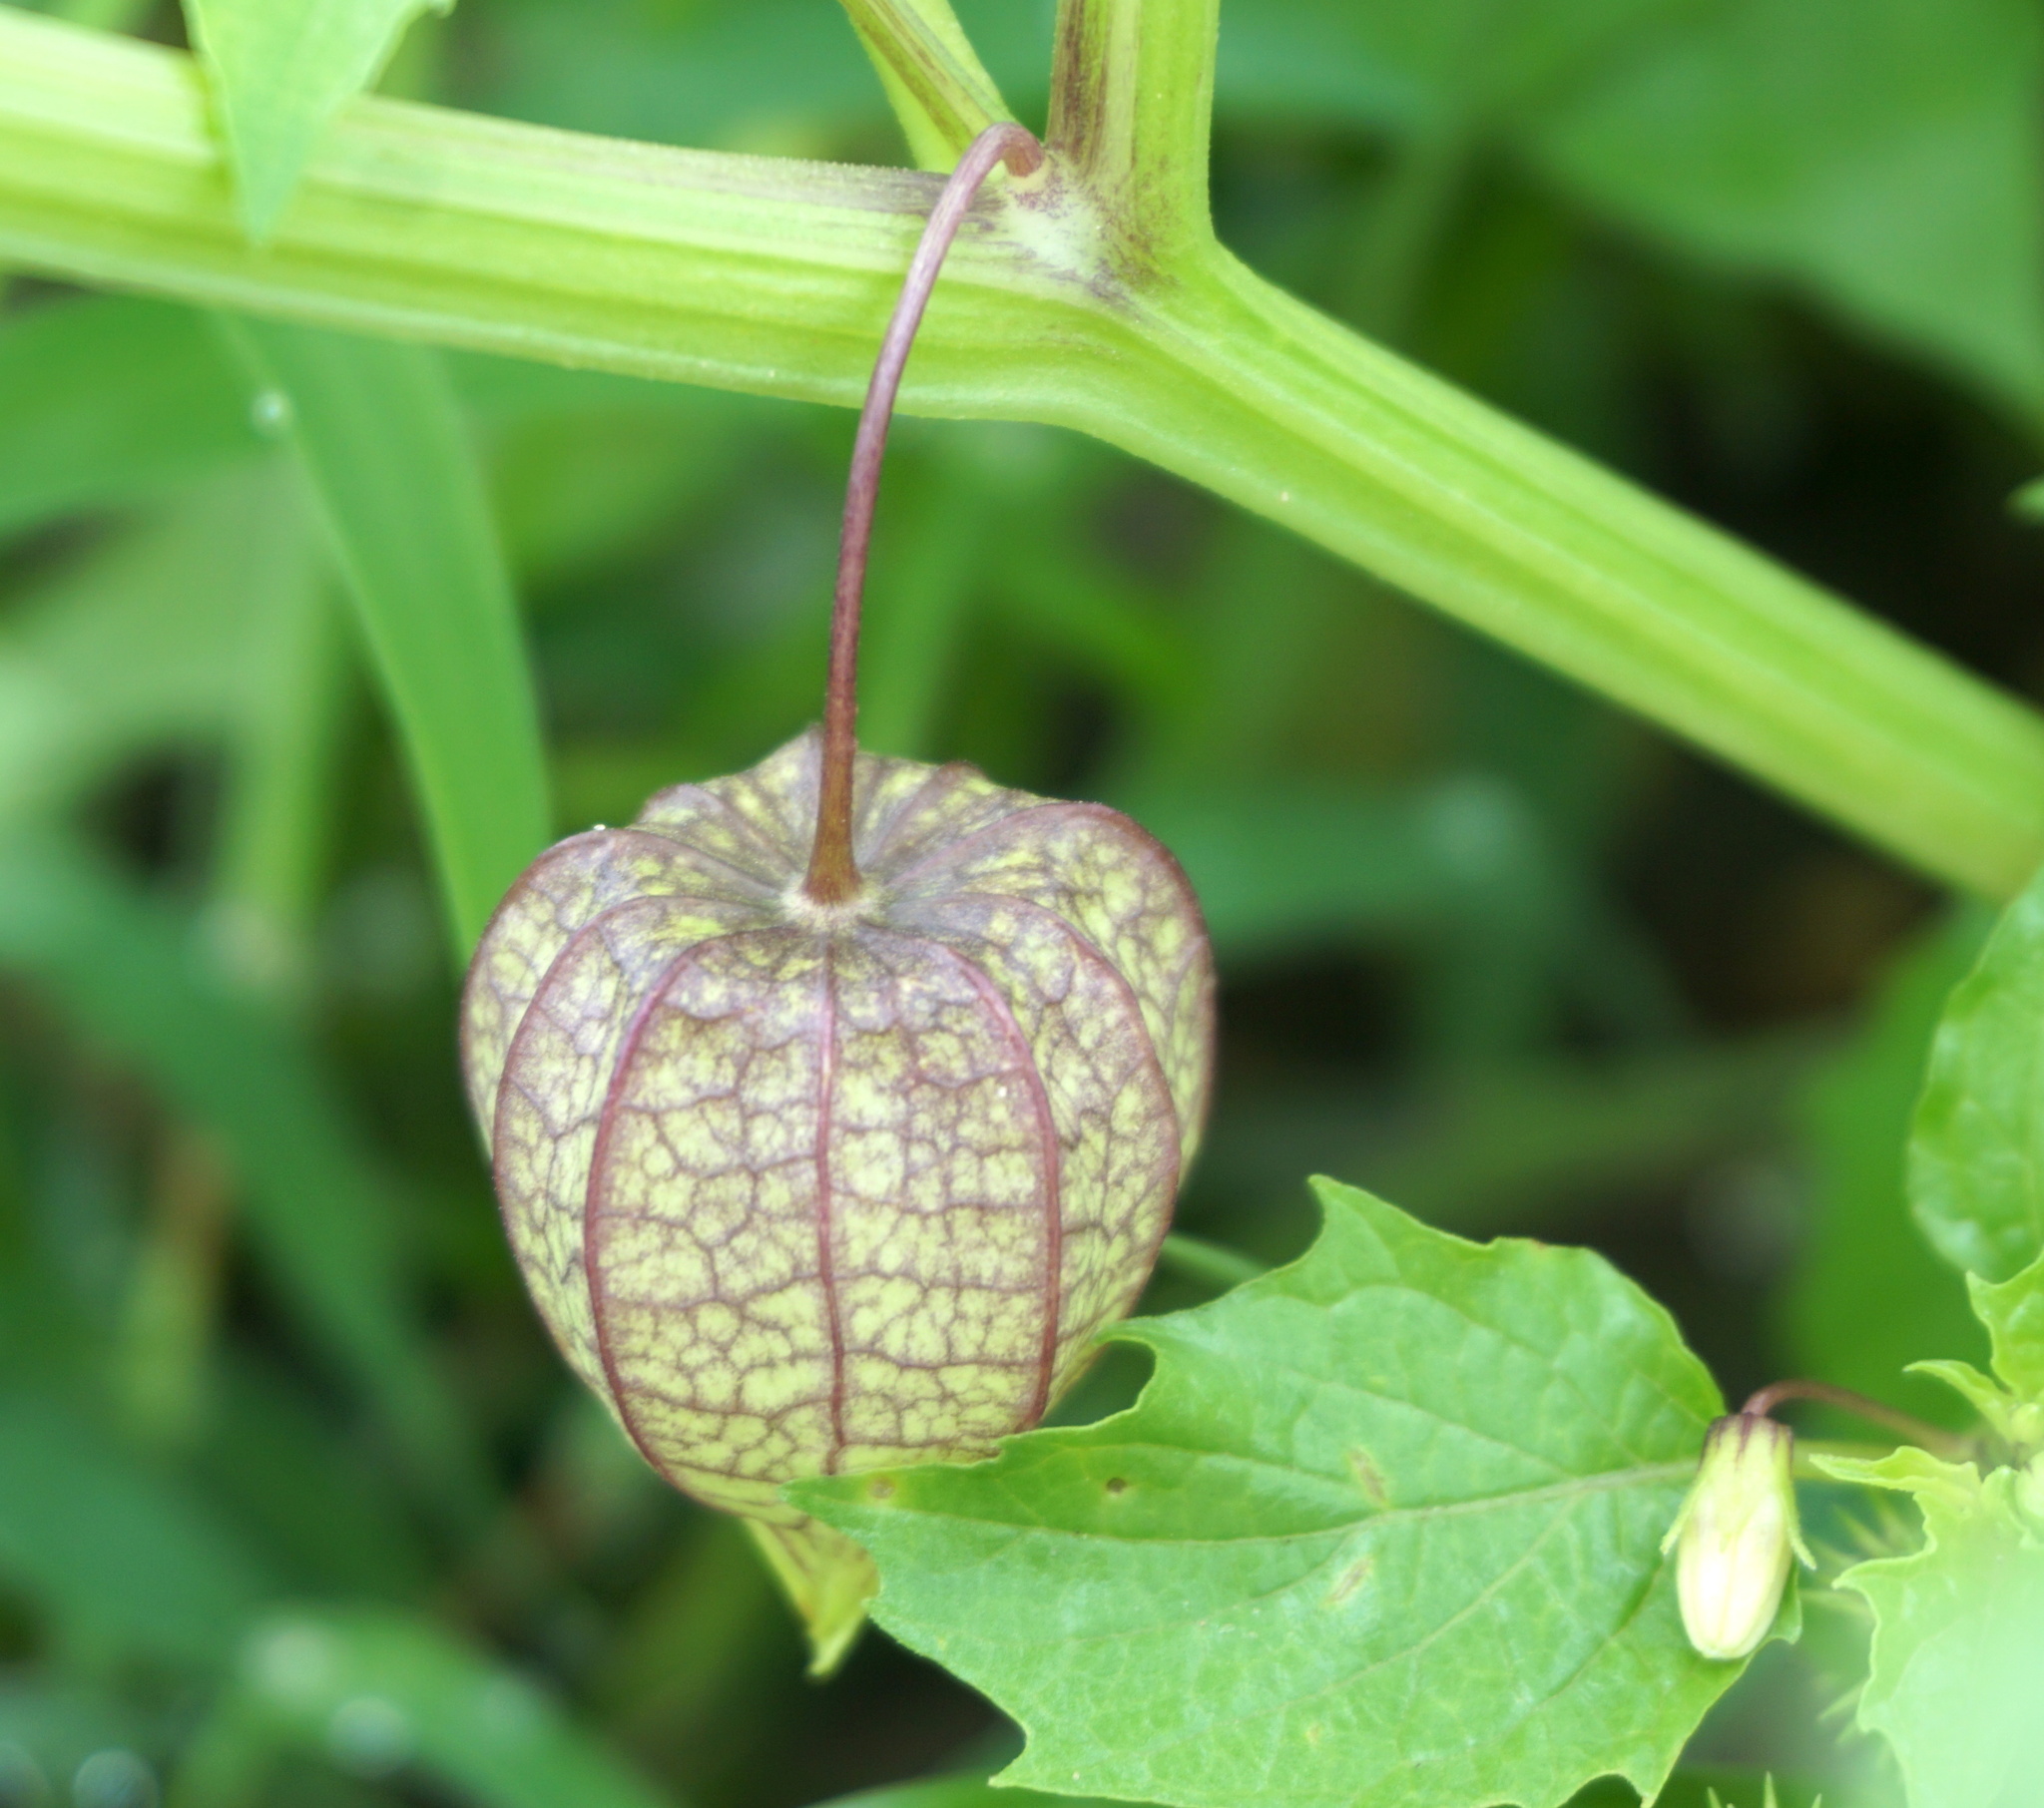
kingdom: Plantae
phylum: Tracheophyta
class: Magnoliopsida
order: Solanales
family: Solanaceae
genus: Physalis
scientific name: Physalis angulata
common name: Angular winter-cherry
